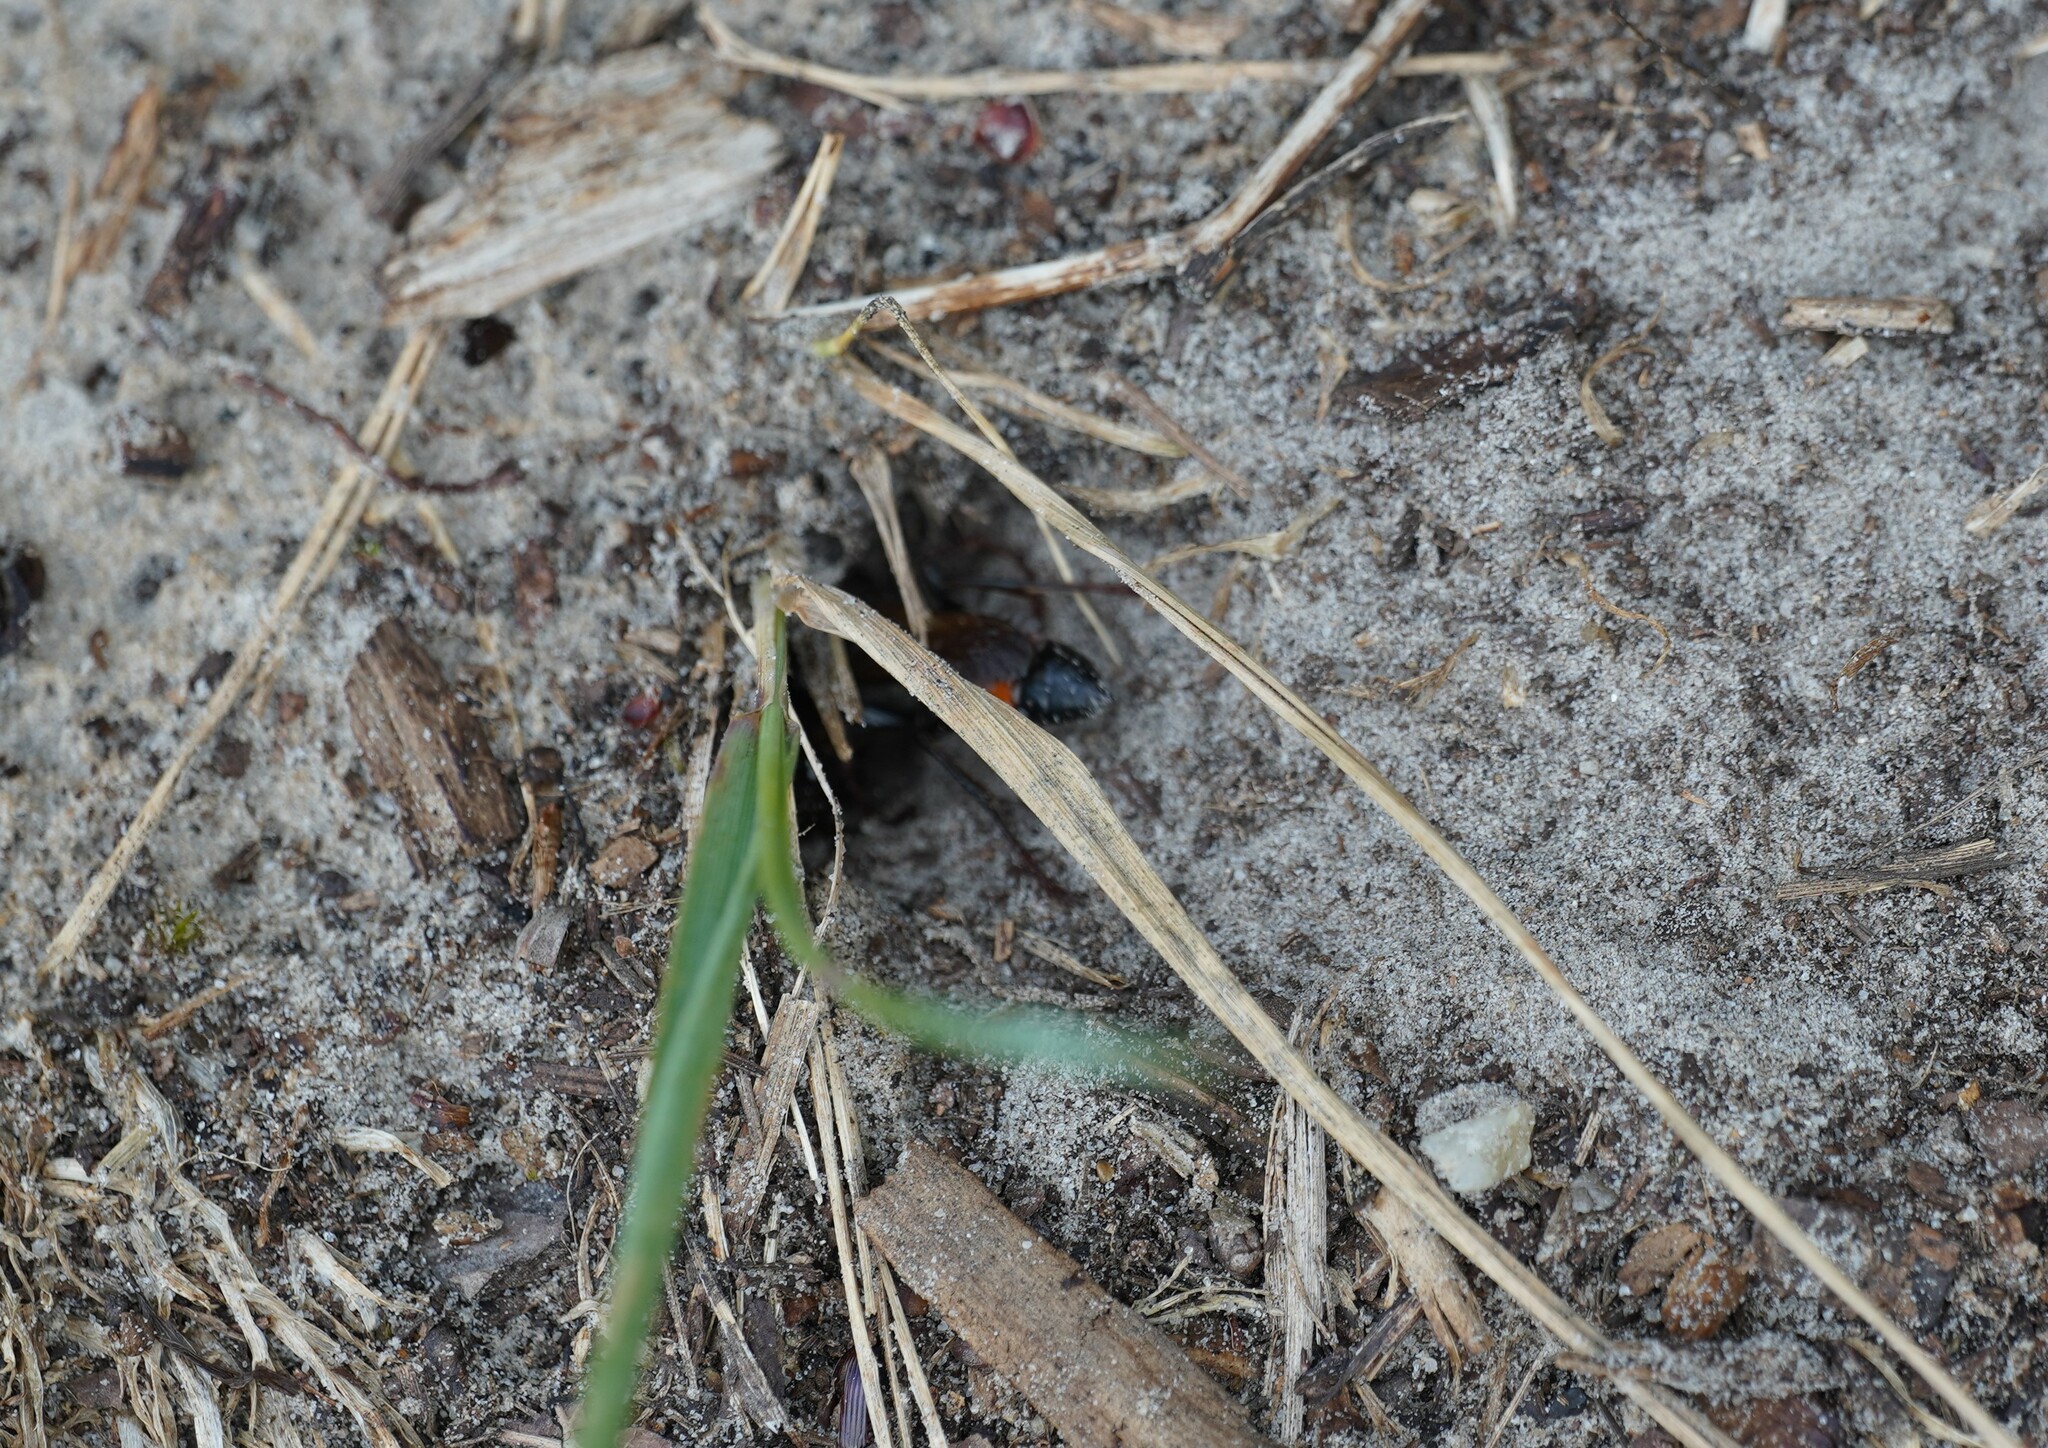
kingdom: Animalia
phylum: Arthropoda
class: Insecta
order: Hymenoptera
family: Sphecidae
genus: Sphex
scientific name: Sphex funerarius
